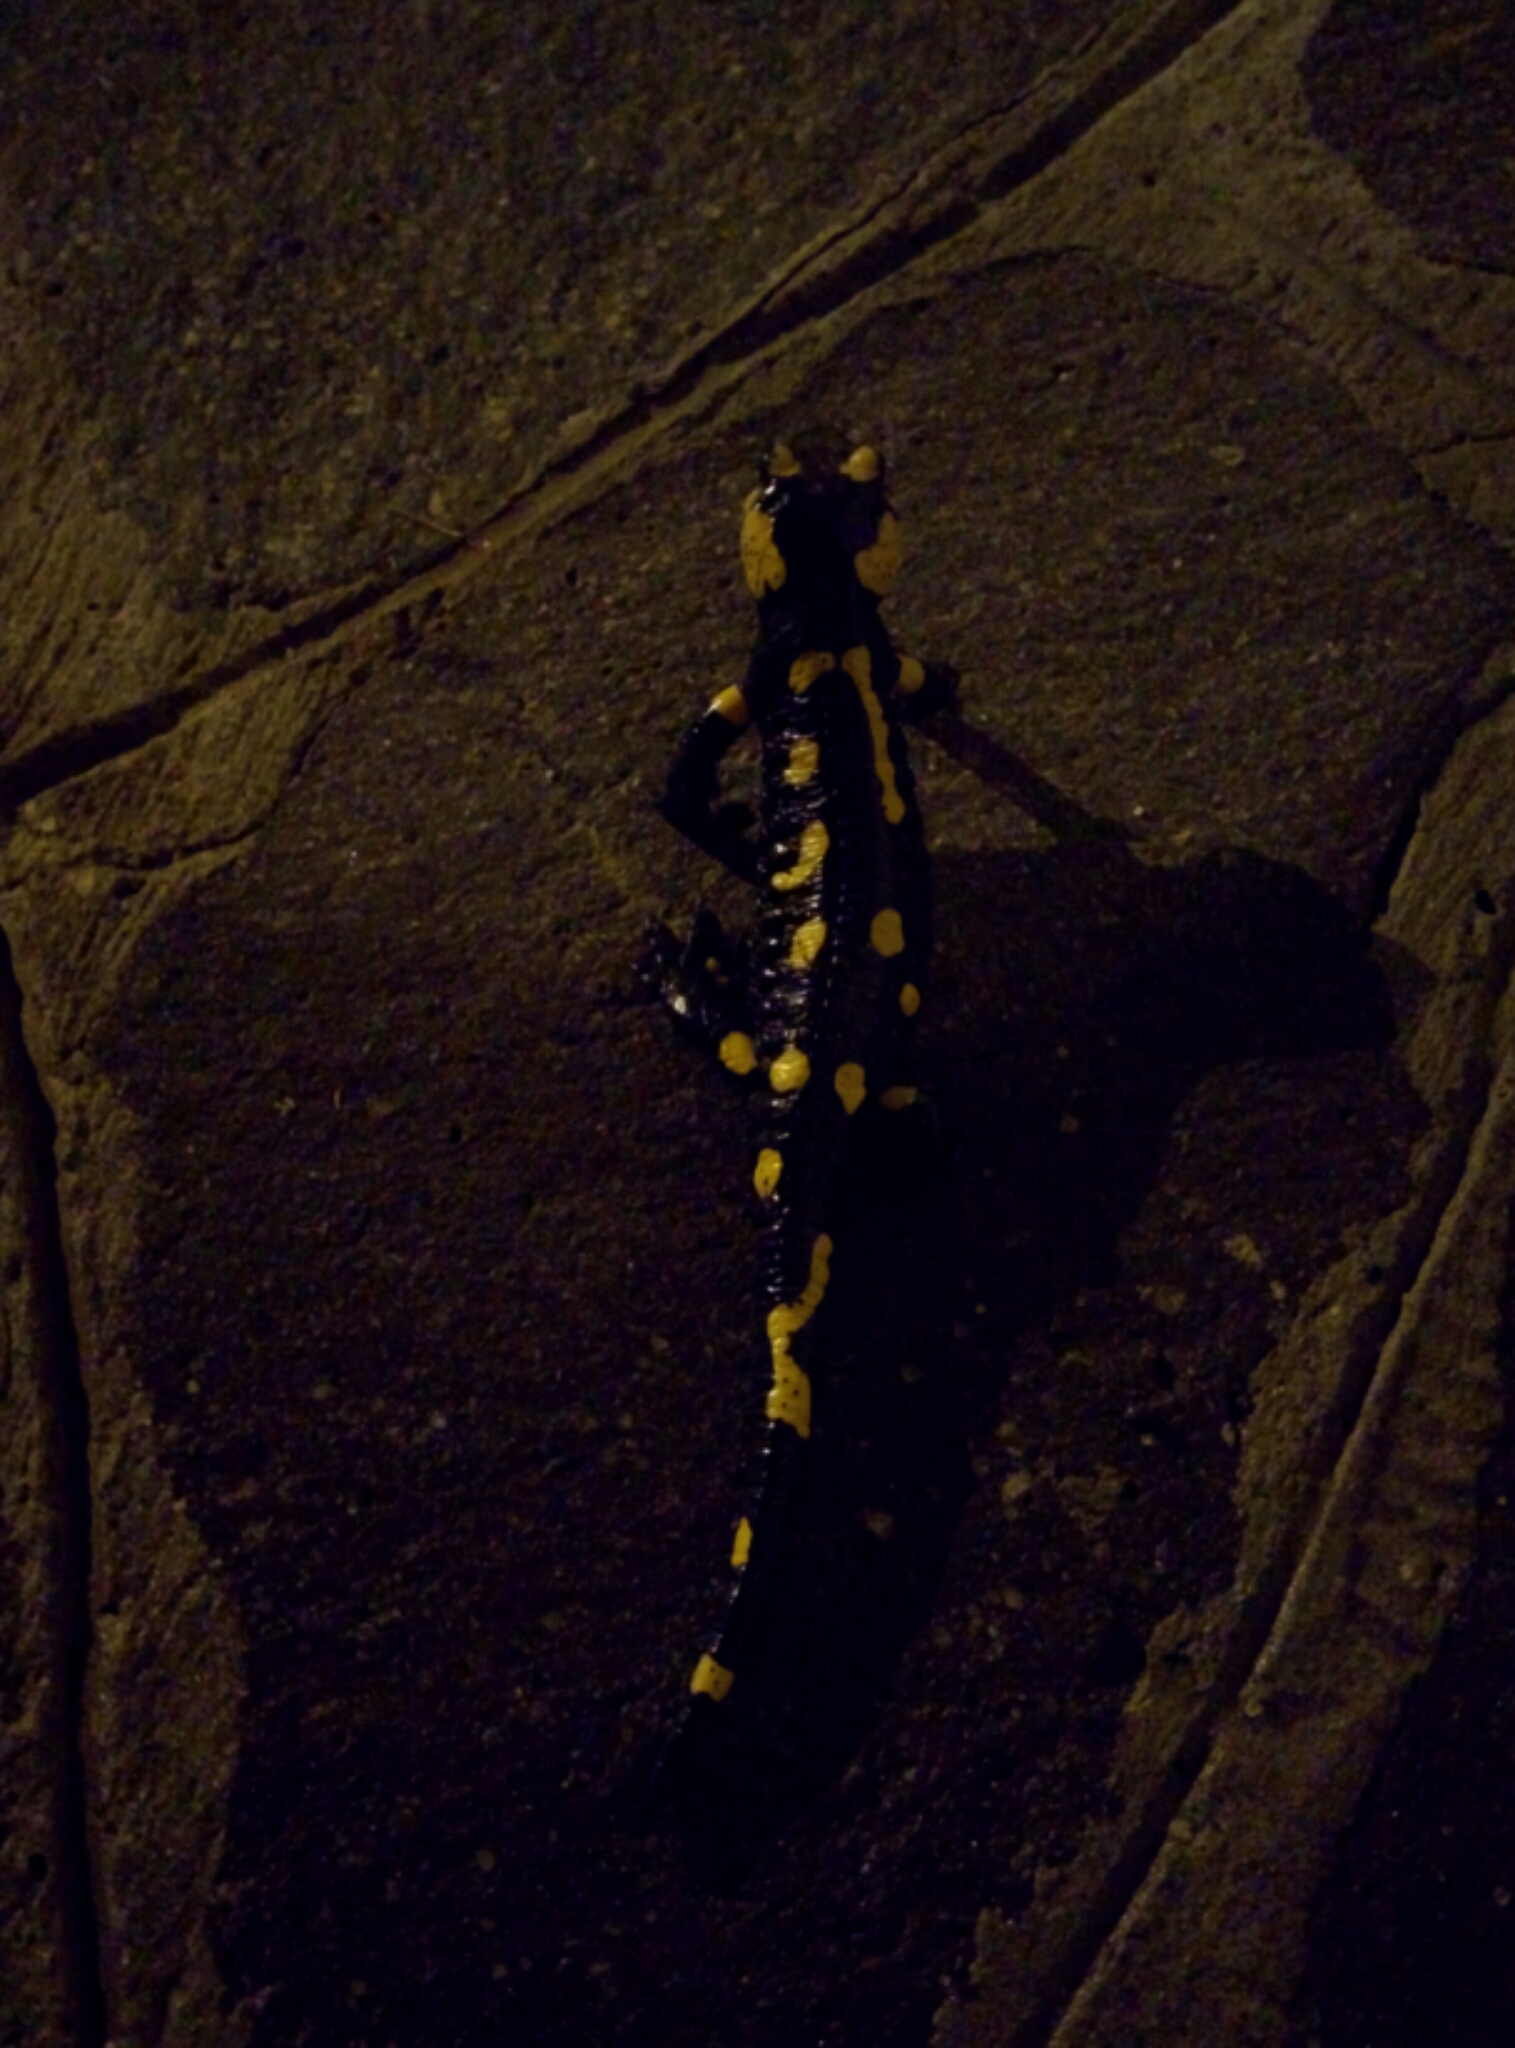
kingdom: Animalia
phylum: Chordata
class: Amphibia
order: Caudata
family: Salamandridae
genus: Salamandra
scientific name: Salamandra salamandra
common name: Fire salamander
